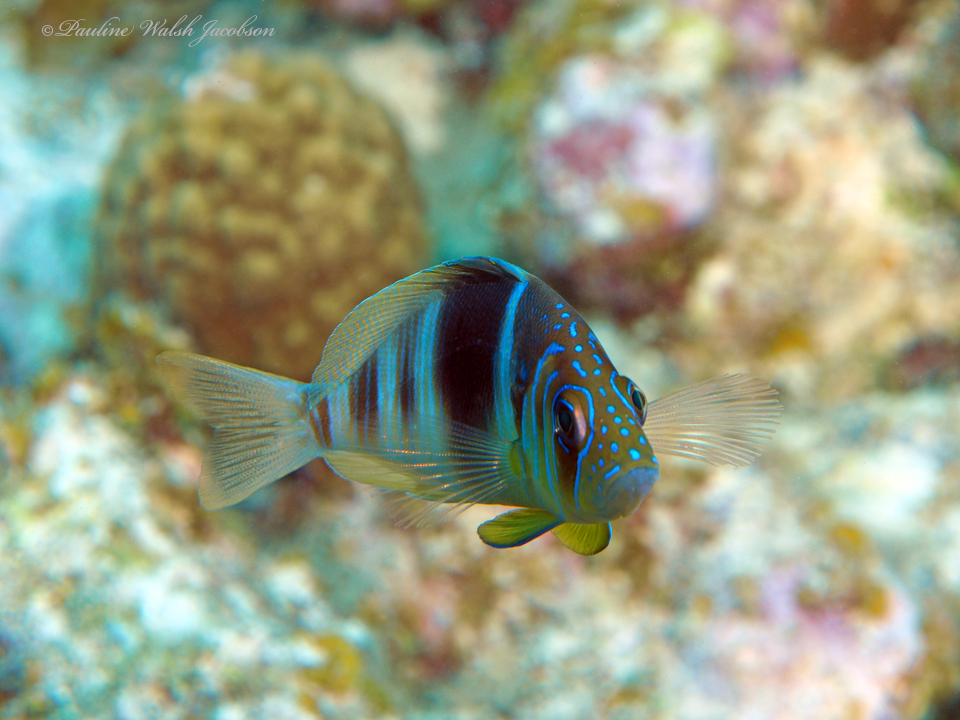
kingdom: Animalia
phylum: Chordata
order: Perciformes
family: Serranidae
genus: Hypoplectrus
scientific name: Hypoplectrus puella
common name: Barred hamlet
